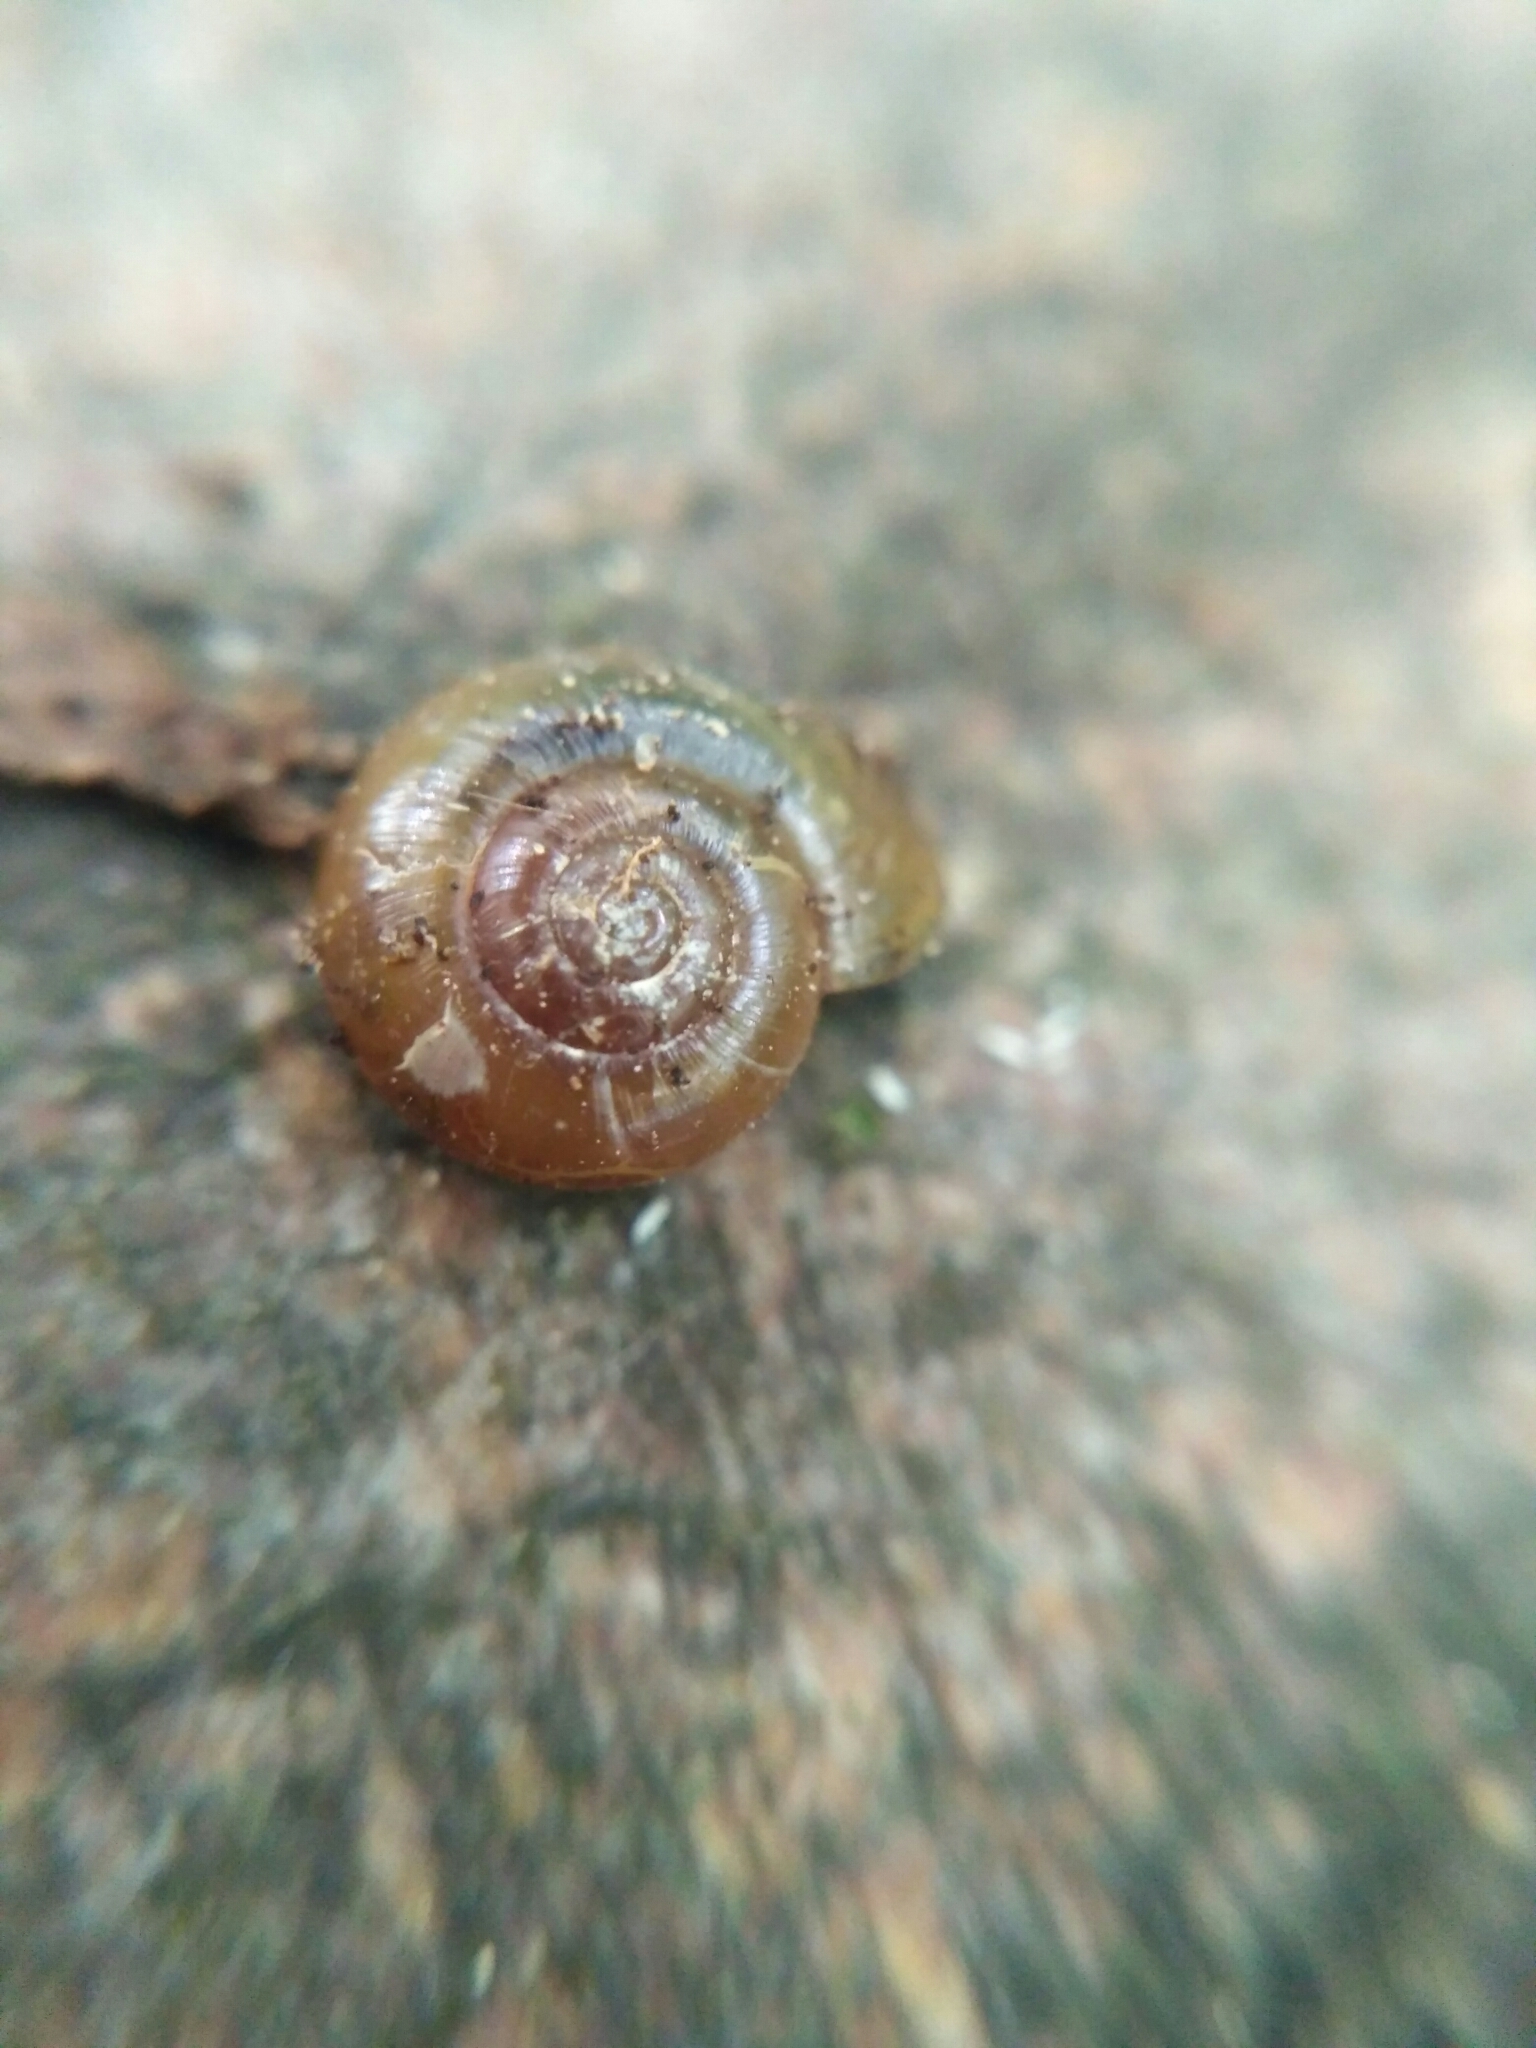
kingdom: Animalia
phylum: Mollusca
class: Gastropoda
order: Stylommatophora
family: Gastrodontidae
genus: Aegopinella
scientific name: Aegopinella minor
